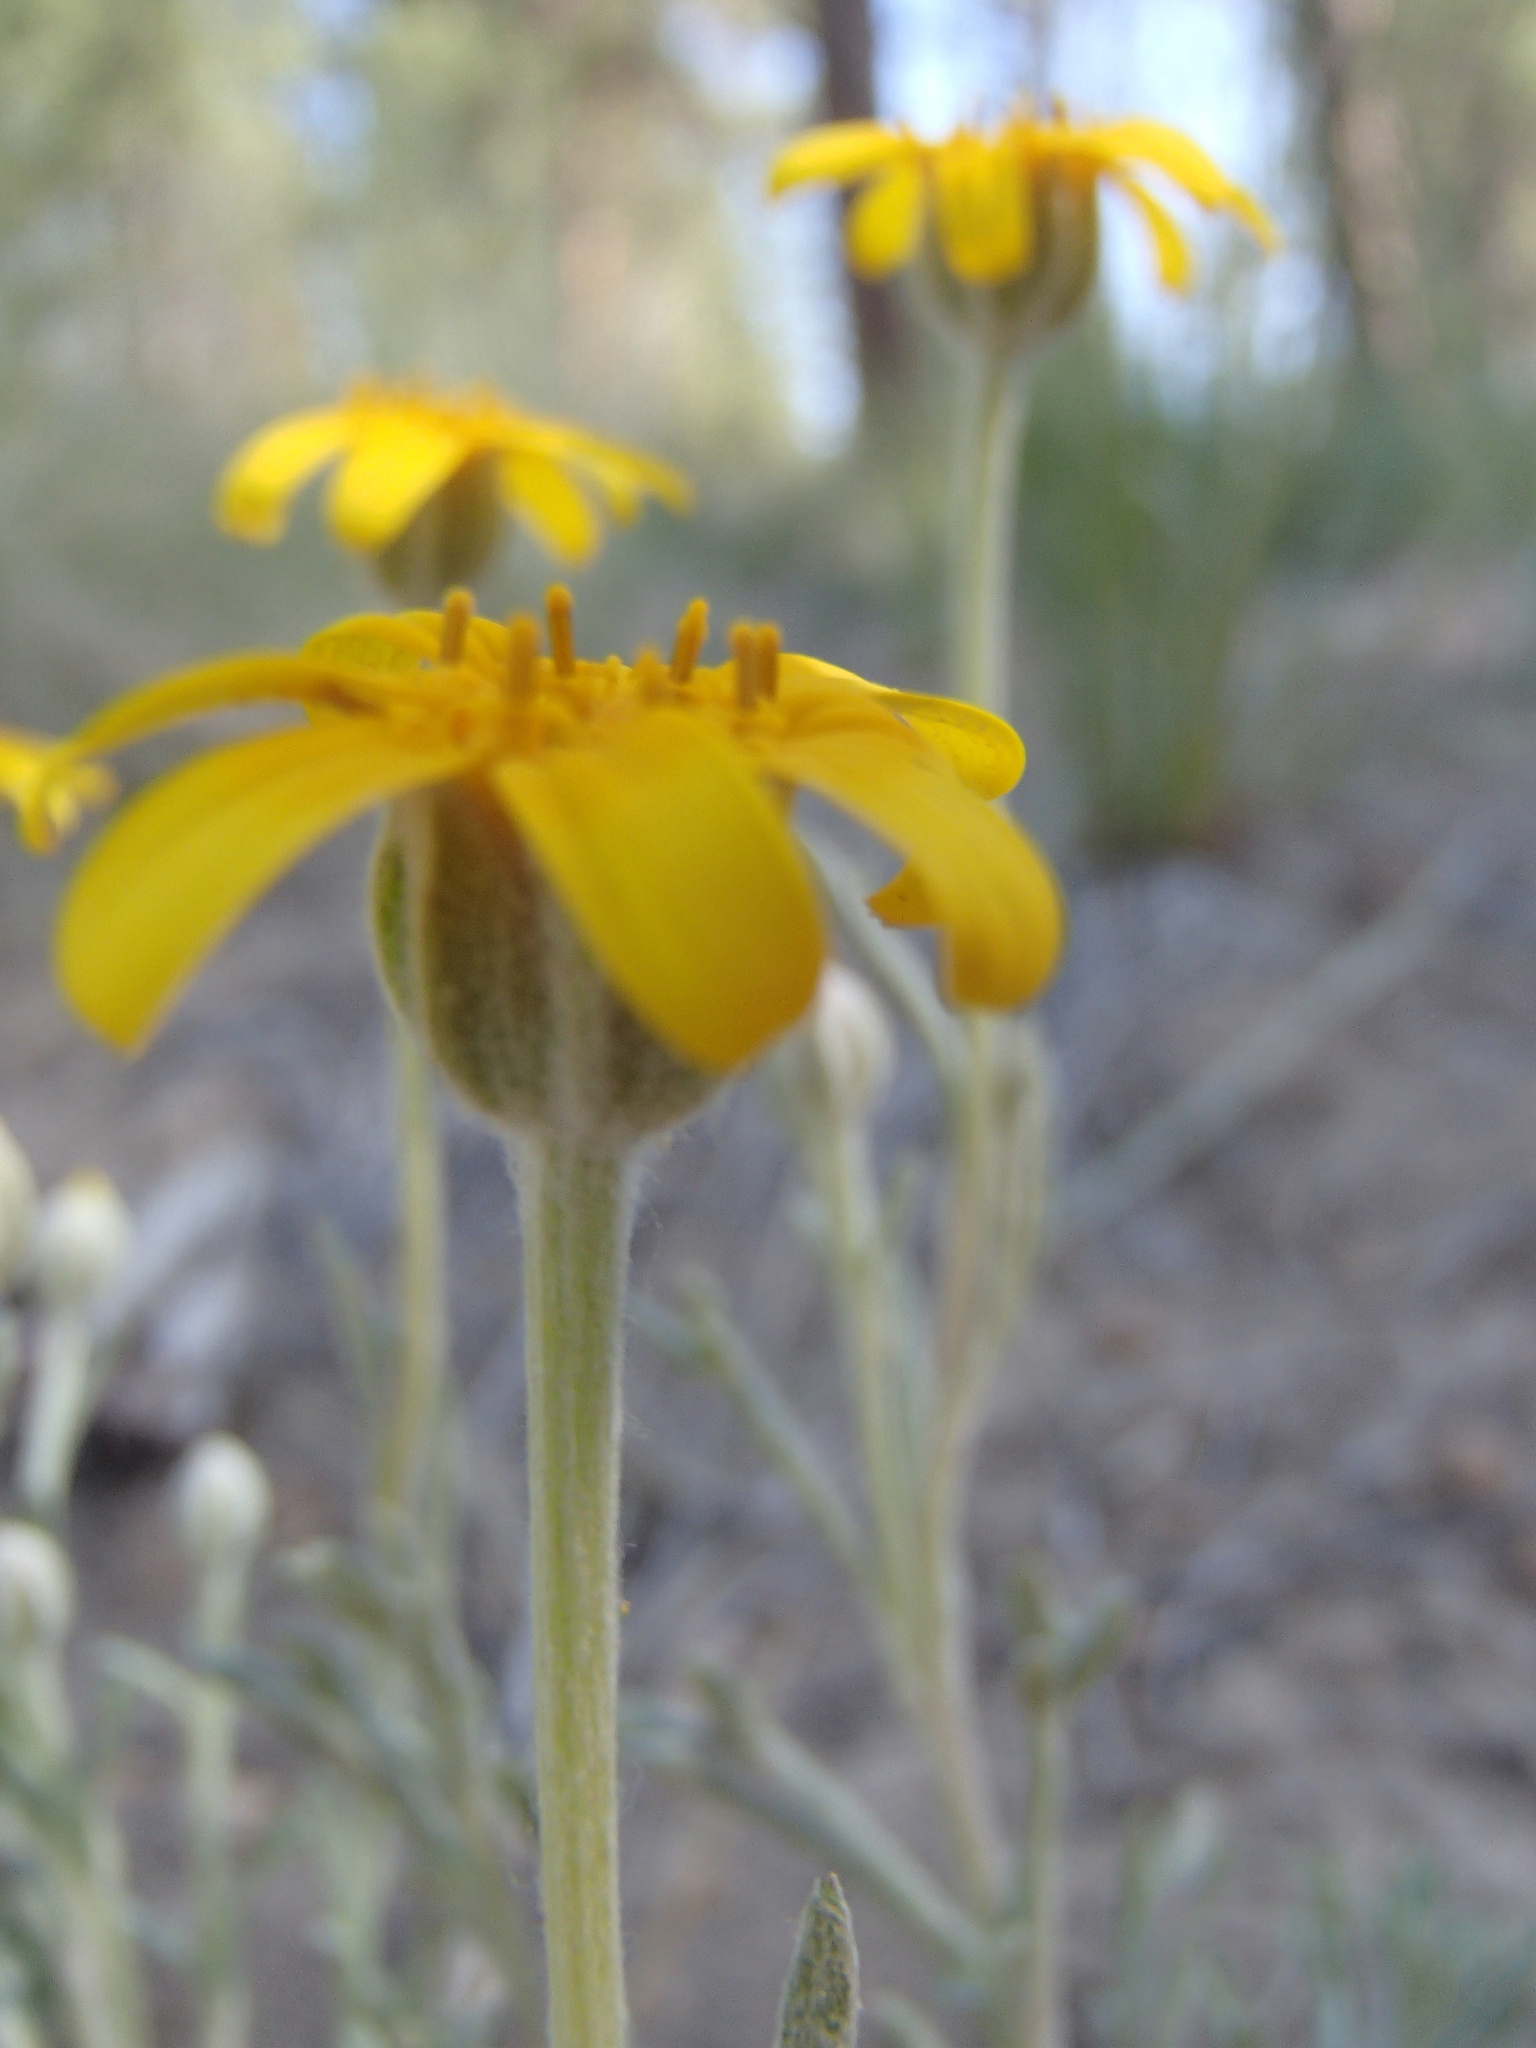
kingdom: Plantae
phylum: Tracheophyta
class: Magnoliopsida
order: Asterales
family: Asteraceae
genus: Eriophyllum
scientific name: Eriophyllum lanatum
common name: Common woolly-sunflower
